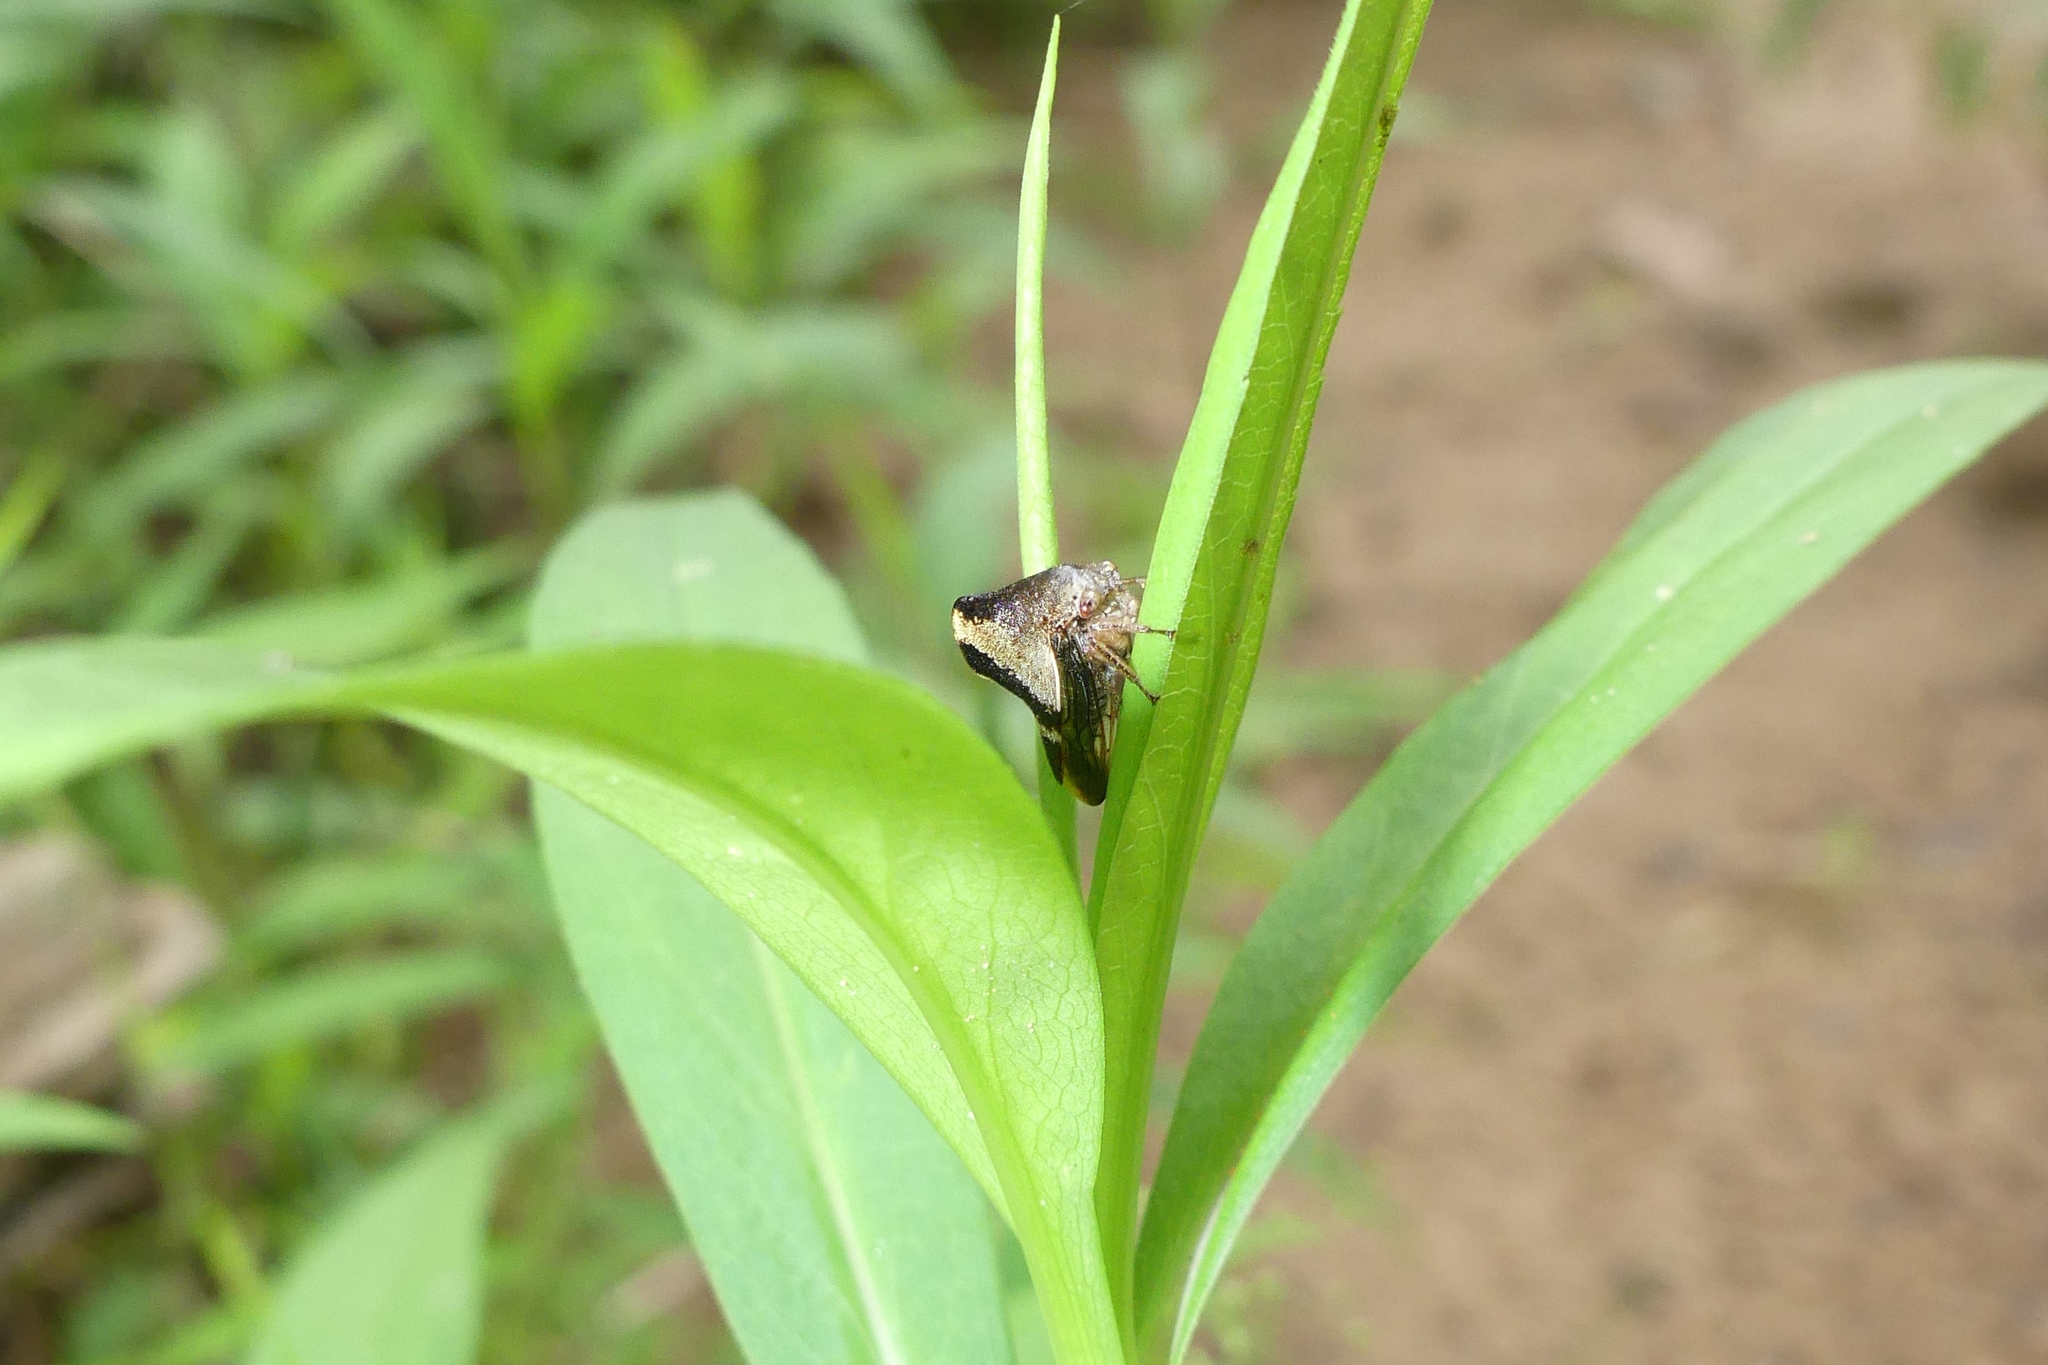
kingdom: Animalia
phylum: Arthropoda
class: Insecta
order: Hemiptera
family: Membracidae
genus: Helonica
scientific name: Helonica excelsa
